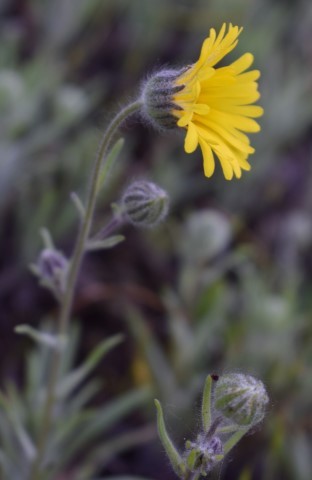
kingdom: Plantae
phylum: Tracheophyta
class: Magnoliopsida
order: Asterales
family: Asteraceae
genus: Madia
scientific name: Madia elegans
